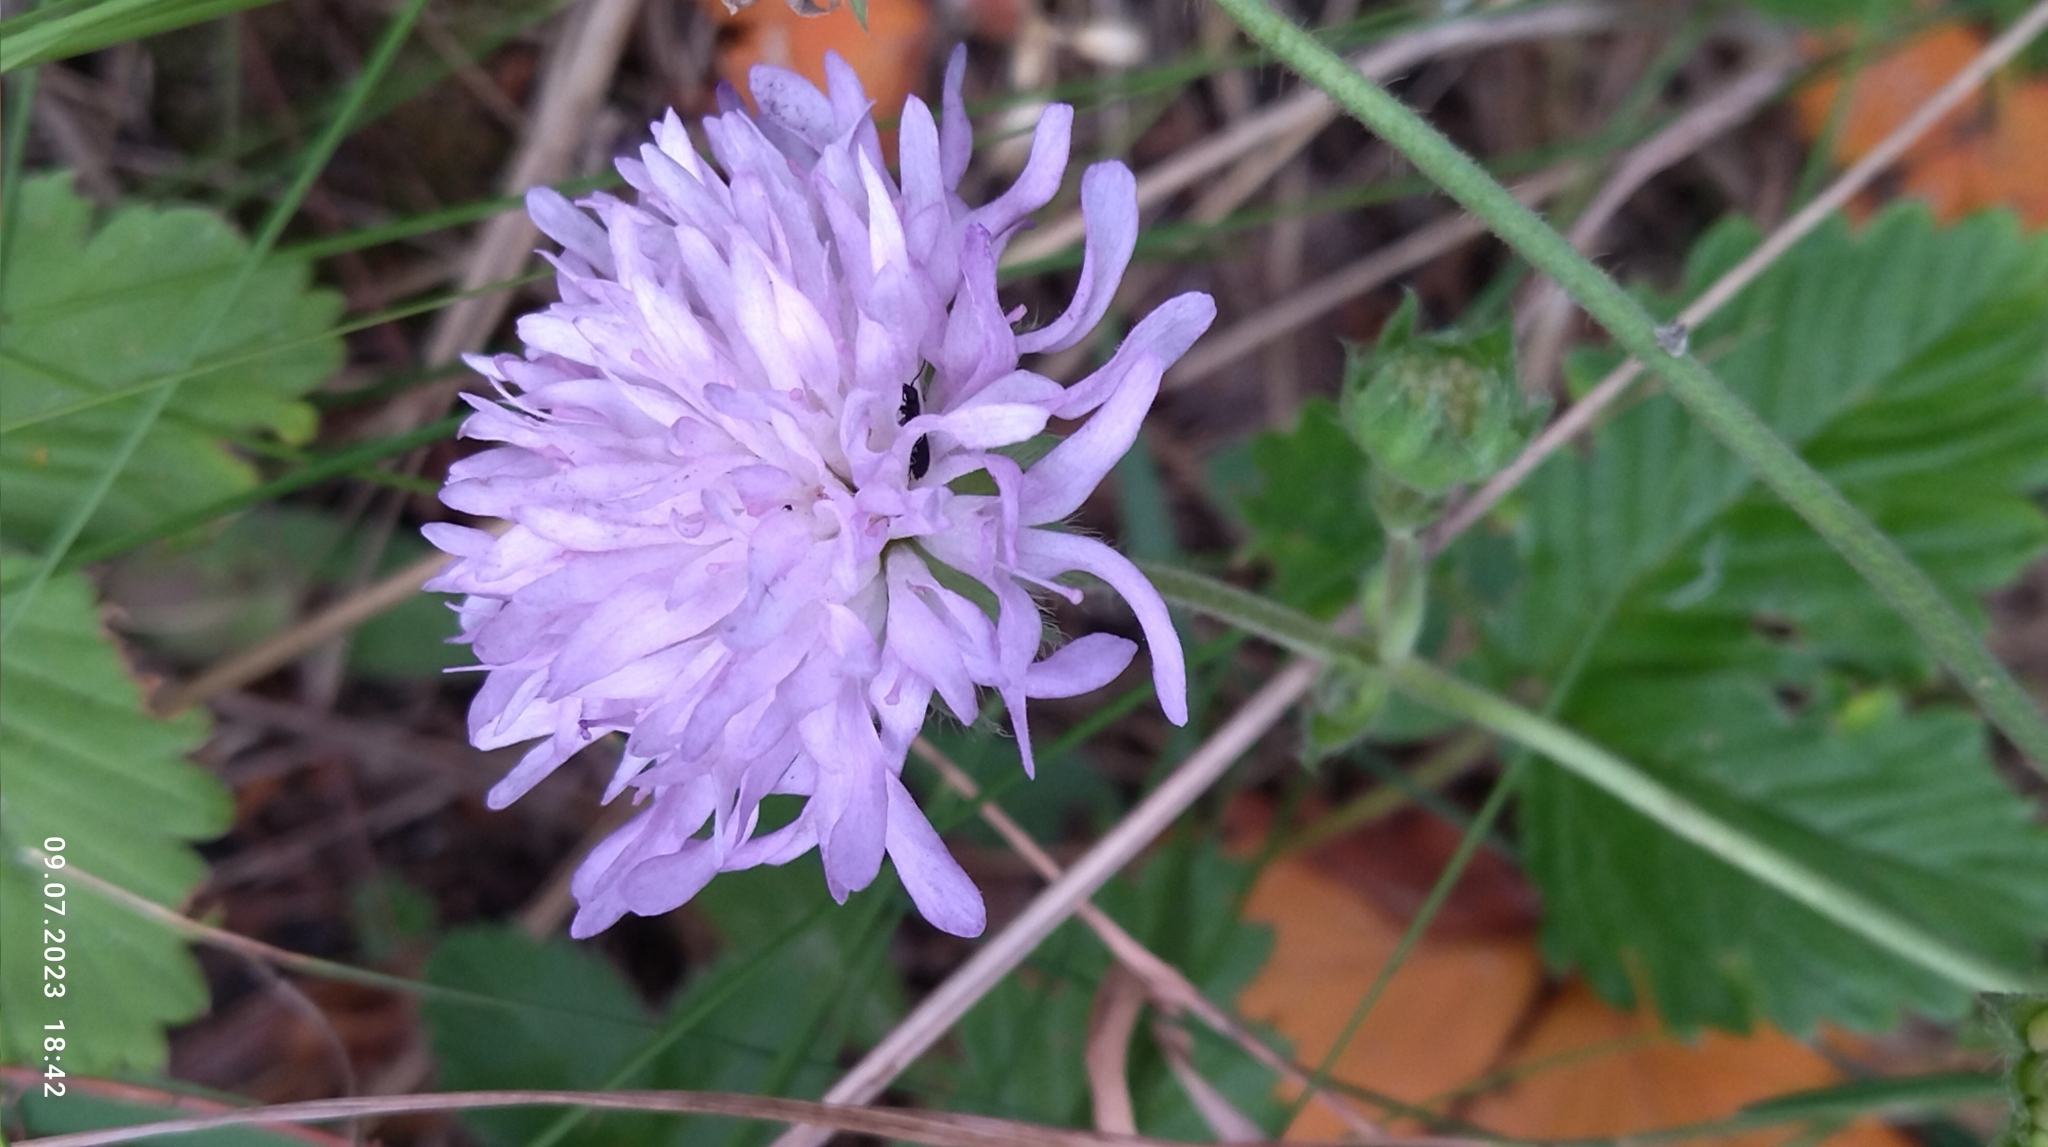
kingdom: Plantae
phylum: Tracheophyta
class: Magnoliopsida
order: Dipsacales
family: Caprifoliaceae
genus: Knautia
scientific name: Knautia arvensis
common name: Field scabiosa
